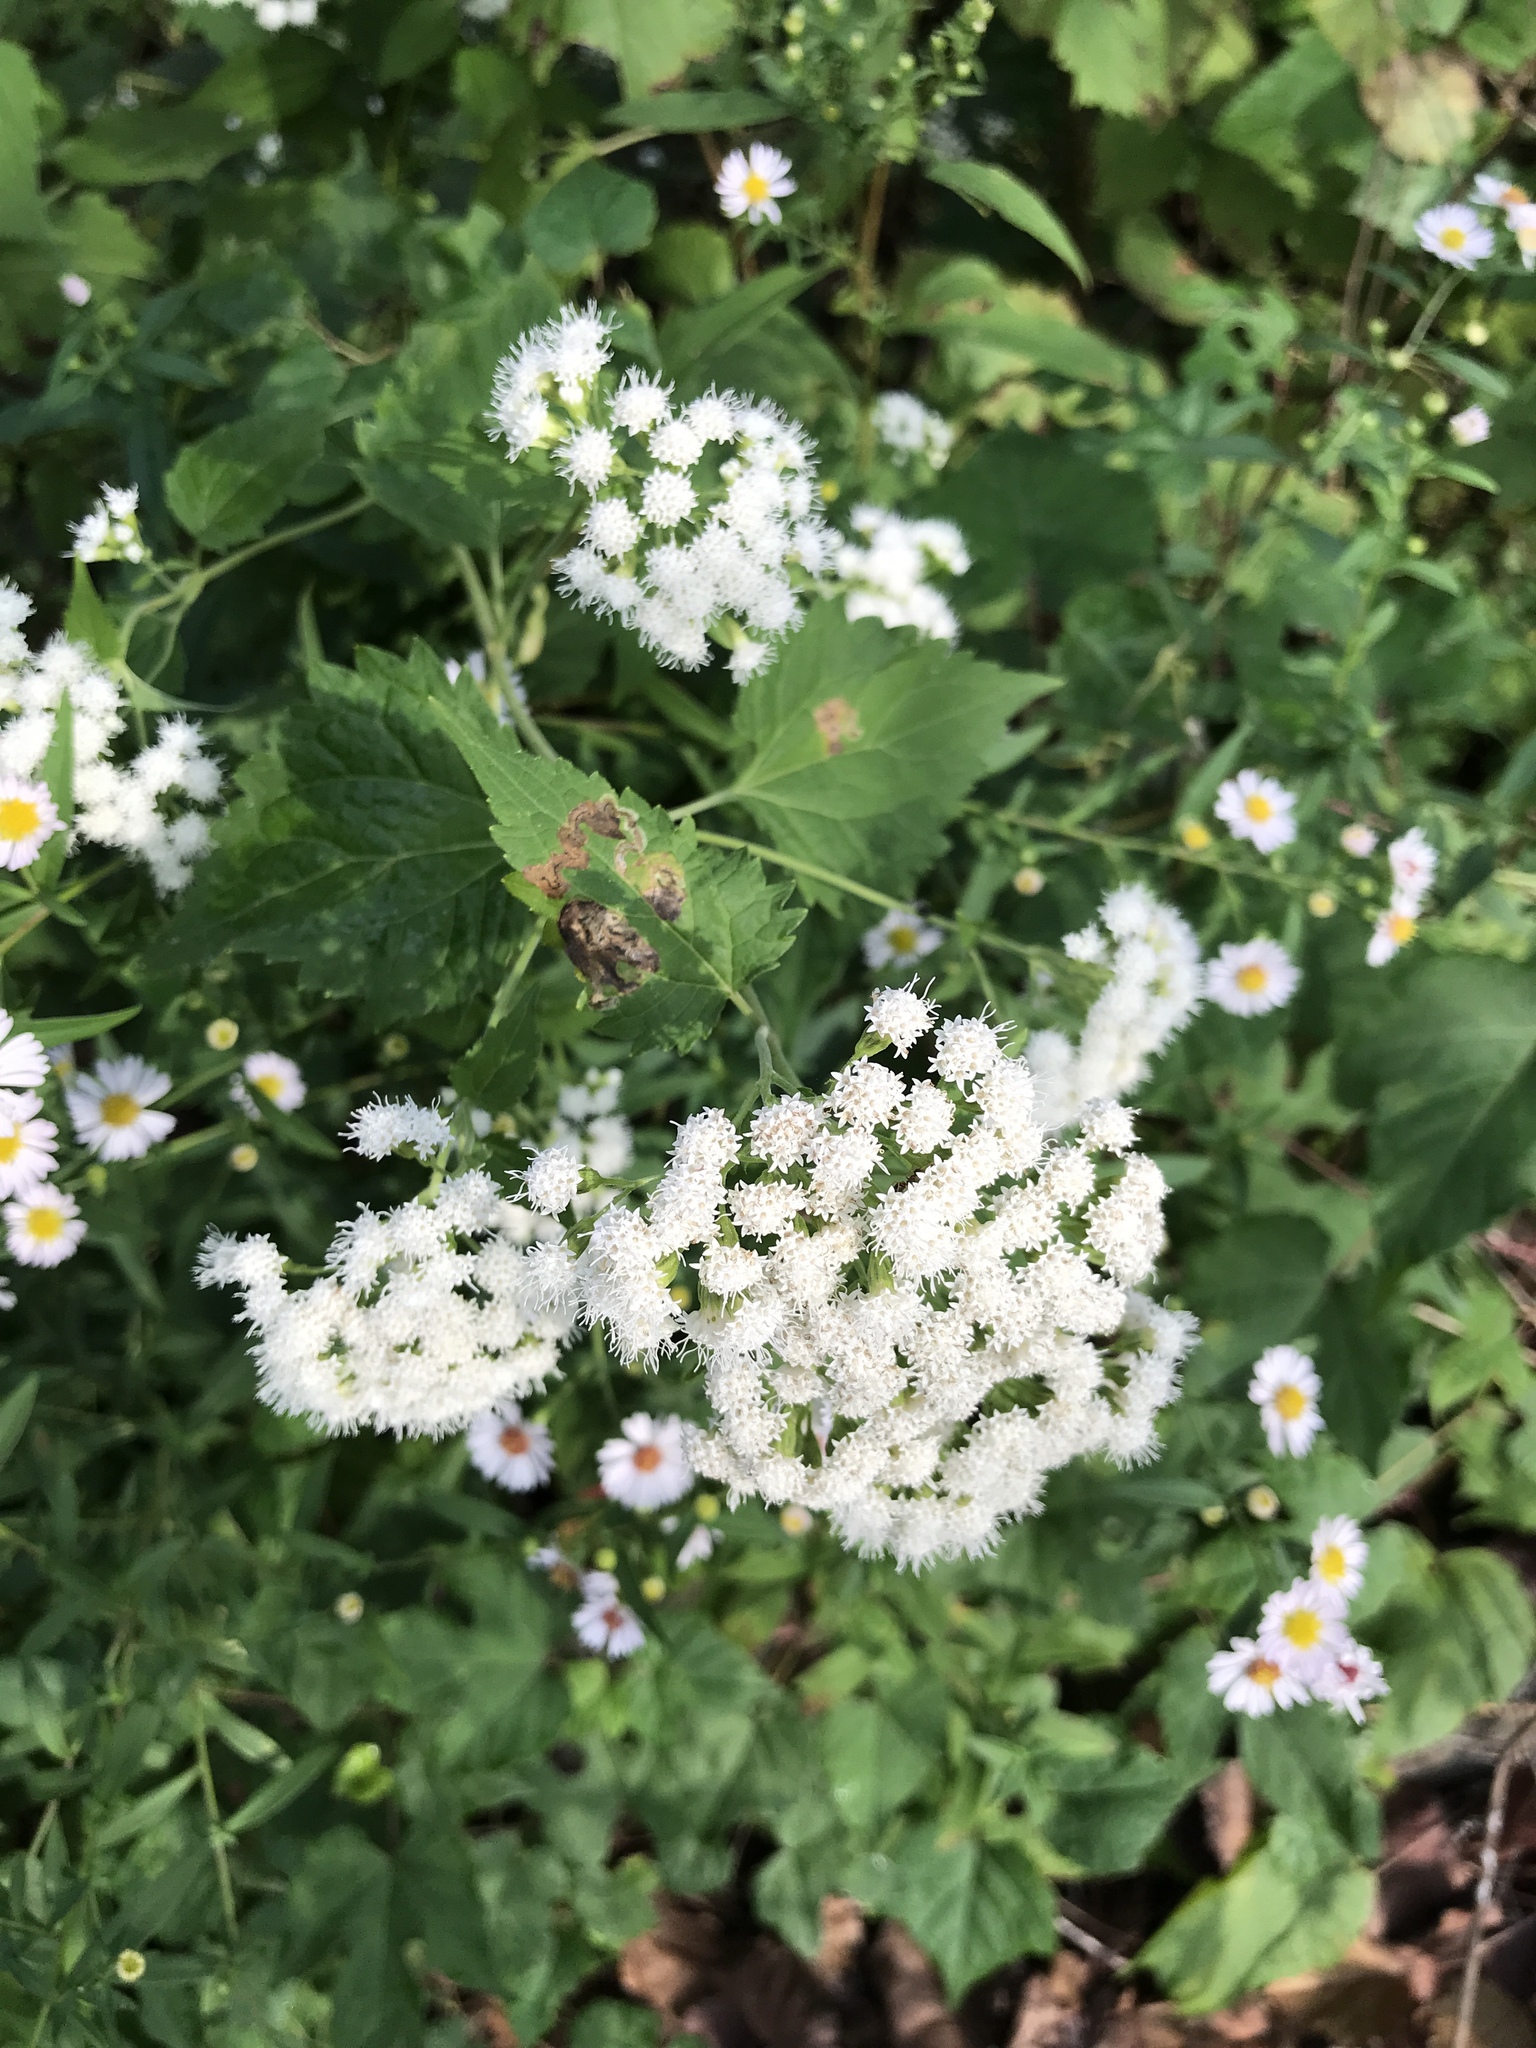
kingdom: Plantae
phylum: Tracheophyta
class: Magnoliopsida
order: Asterales
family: Asteraceae
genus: Ageratina
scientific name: Ageratina altissima
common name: White snakeroot
